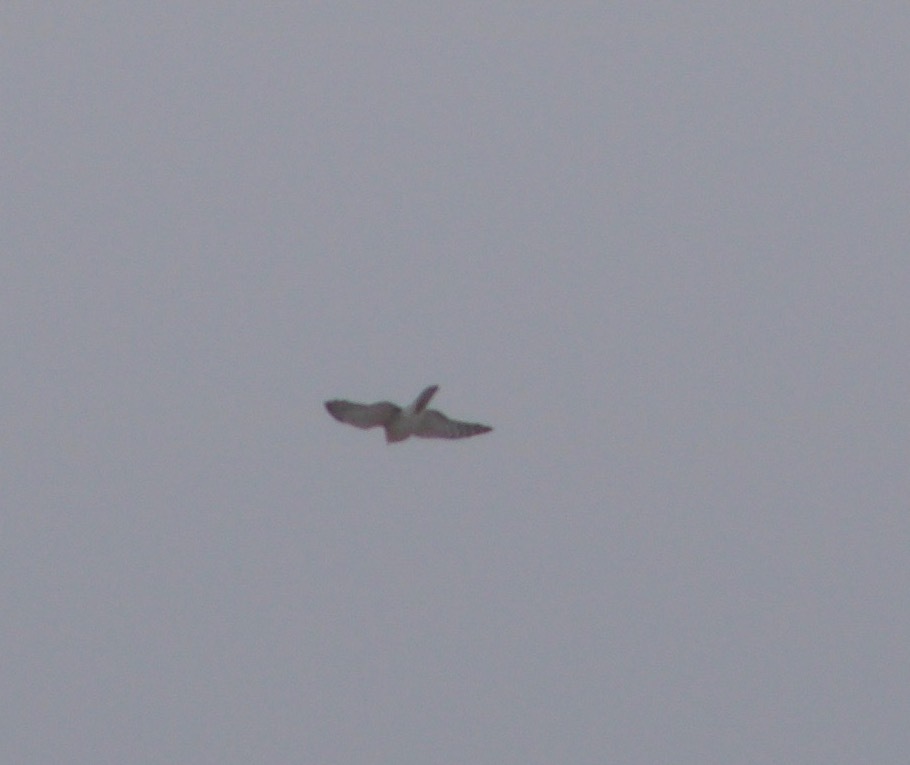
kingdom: Animalia
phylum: Chordata
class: Aves
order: Accipitriformes
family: Accipitridae
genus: Accipiter
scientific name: Accipiter nisus
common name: Eurasian sparrowhawk
